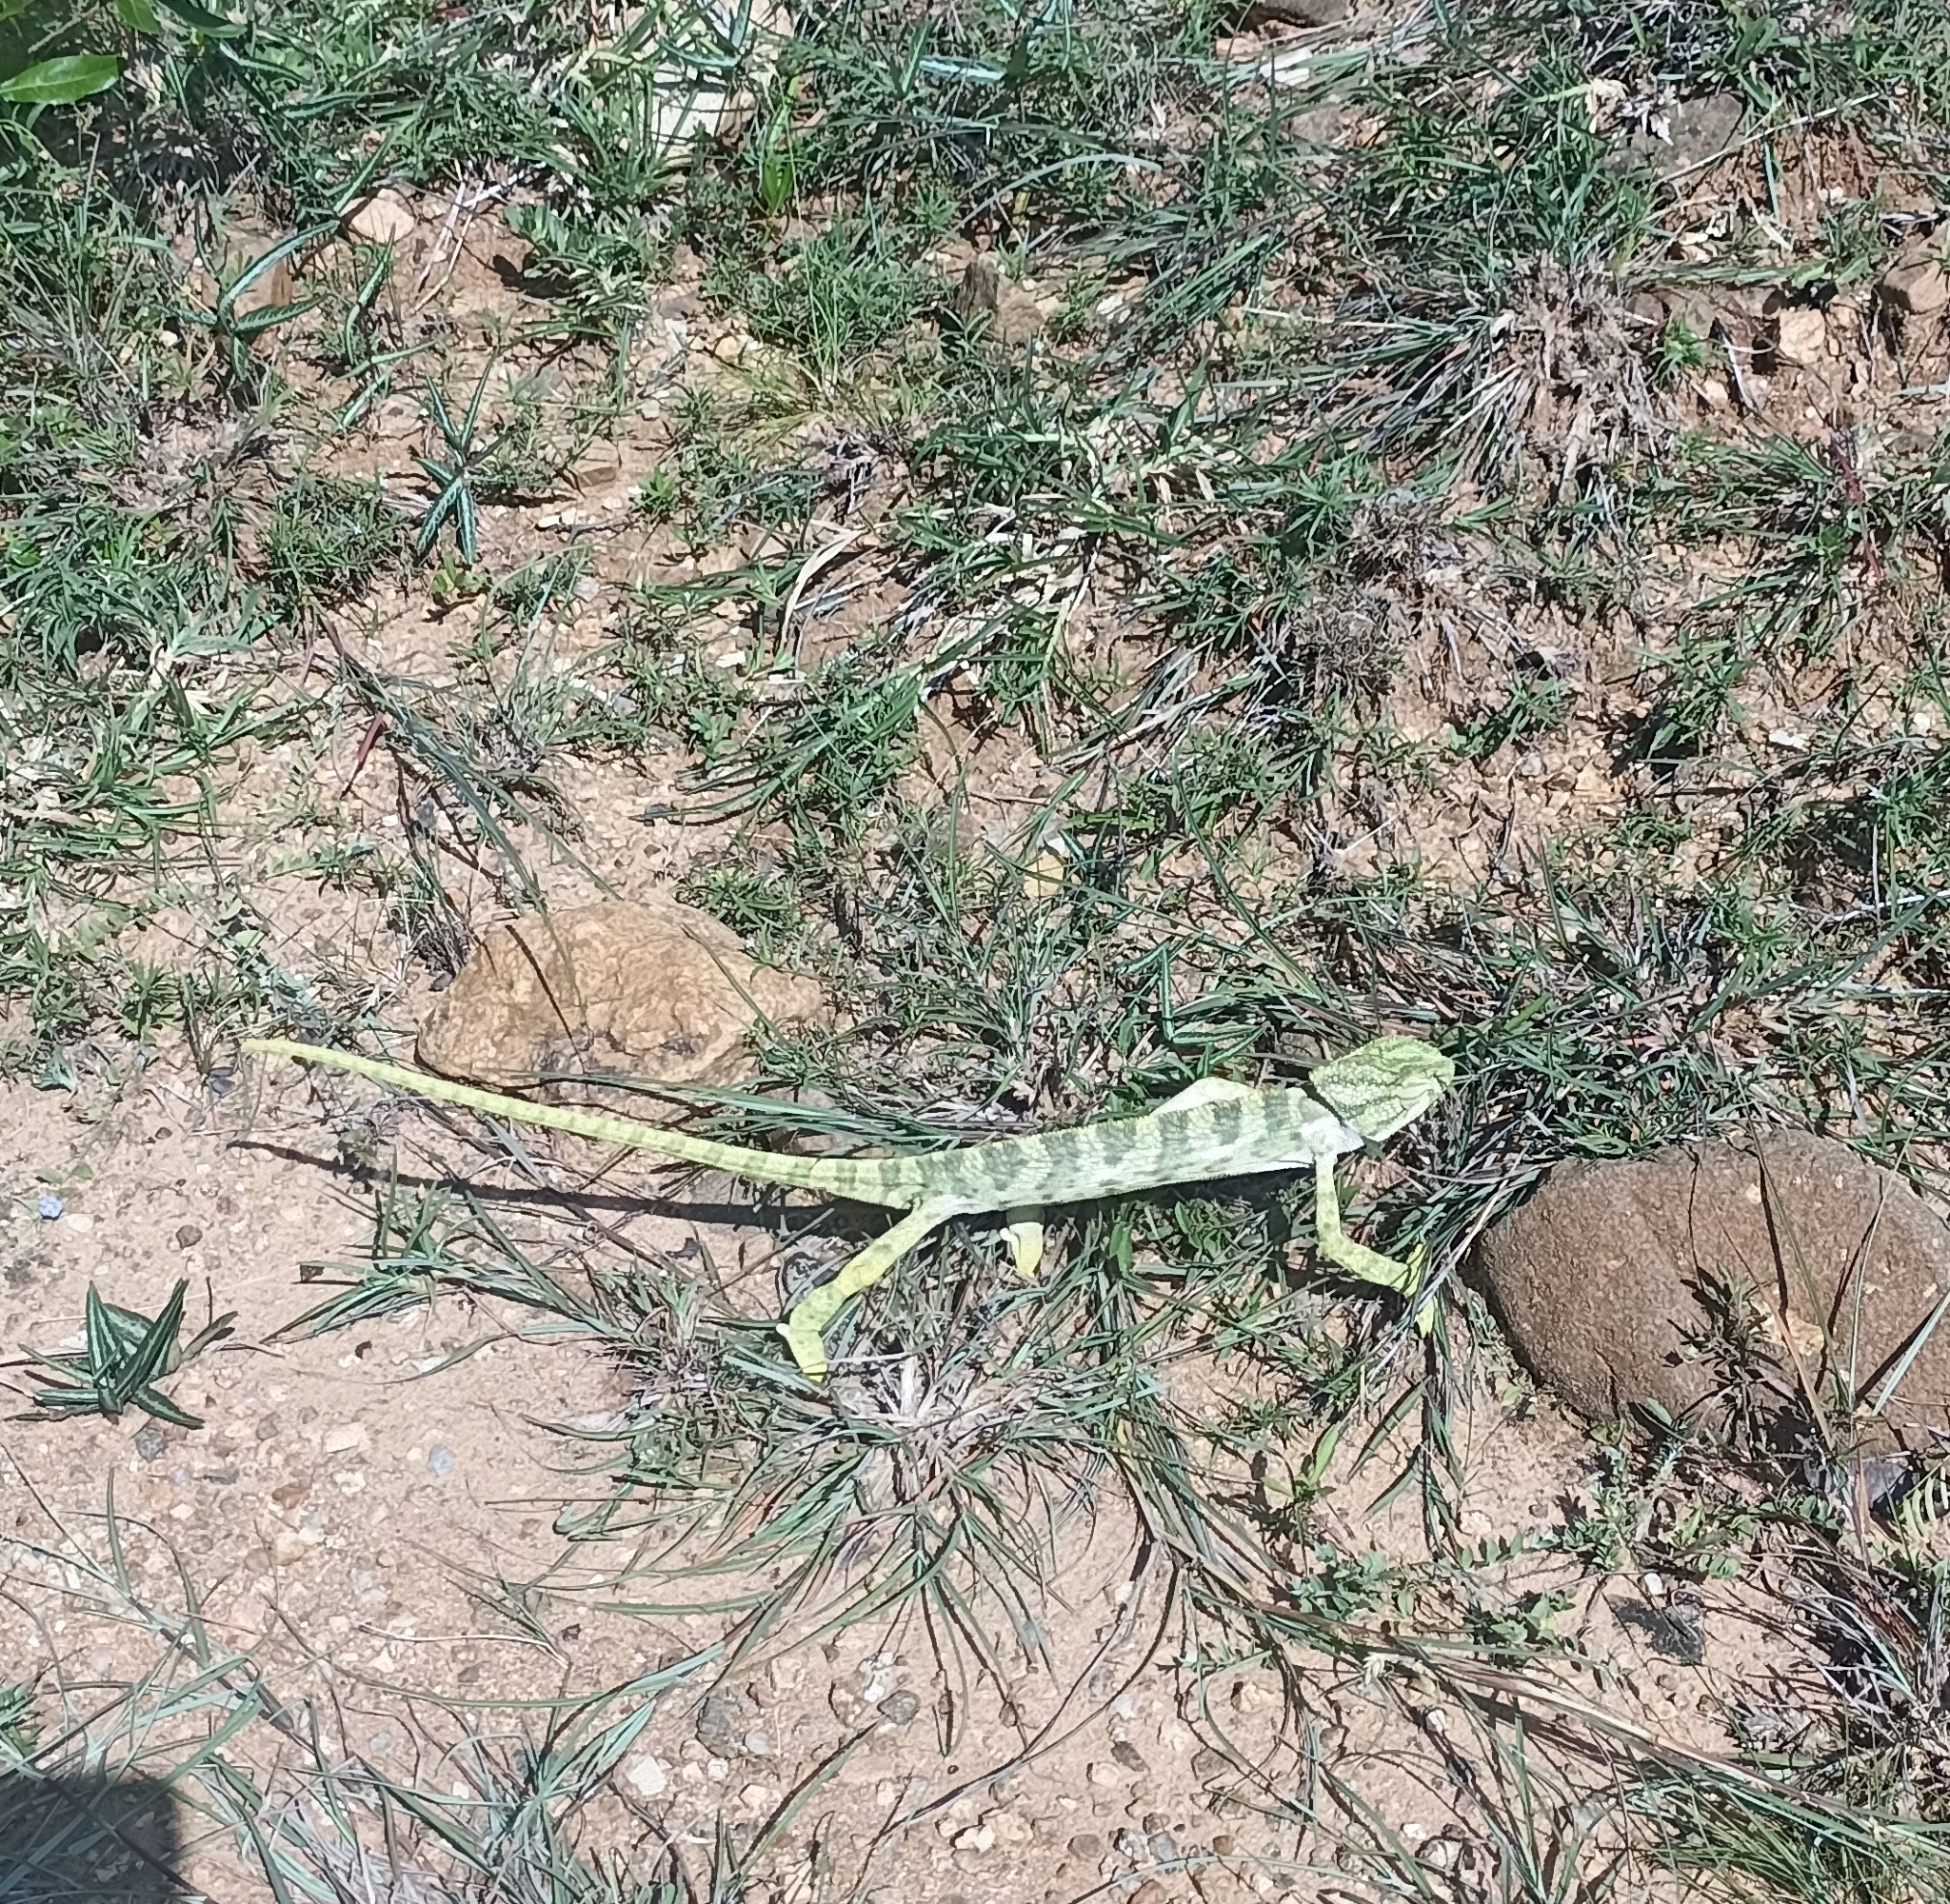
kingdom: Animalia
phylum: Chordata
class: Squamata
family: Chamaeleonidae
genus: Chamaeleo
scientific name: Chamaeleo zeylanicus
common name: Indian chameleon
